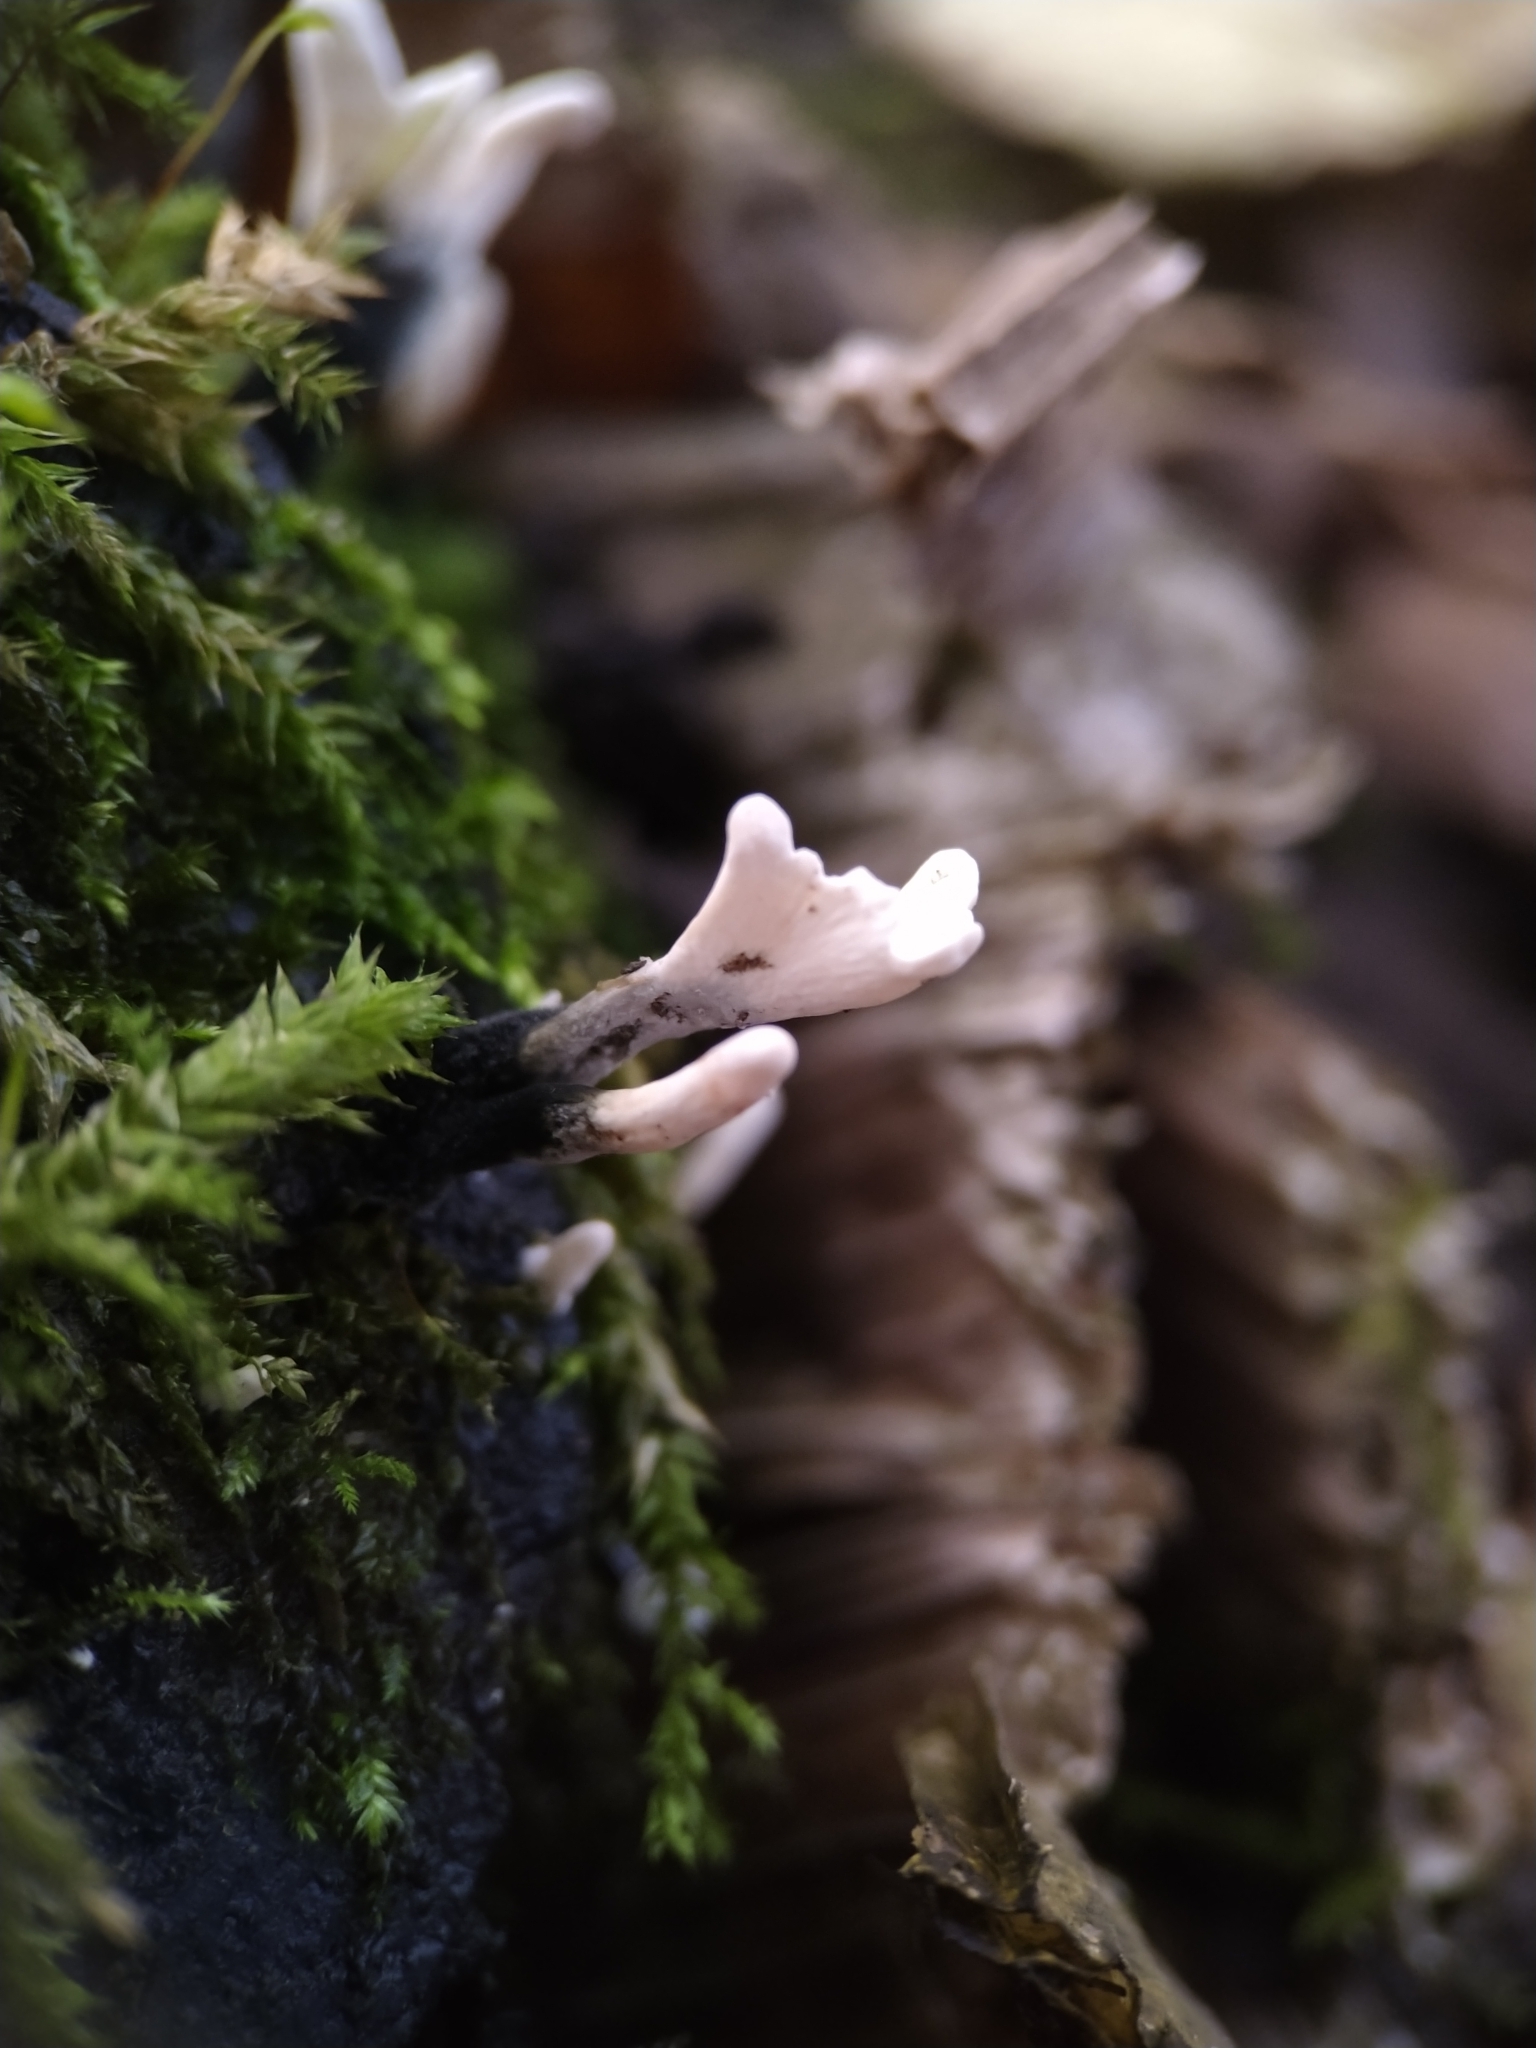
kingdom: Fungi
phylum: Ascomycota
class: Sordariomycetes
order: Xylariales
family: Xylariaceae
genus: Xylaria
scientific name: Xylaria hypoxylon
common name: Candle-snuff fungus
